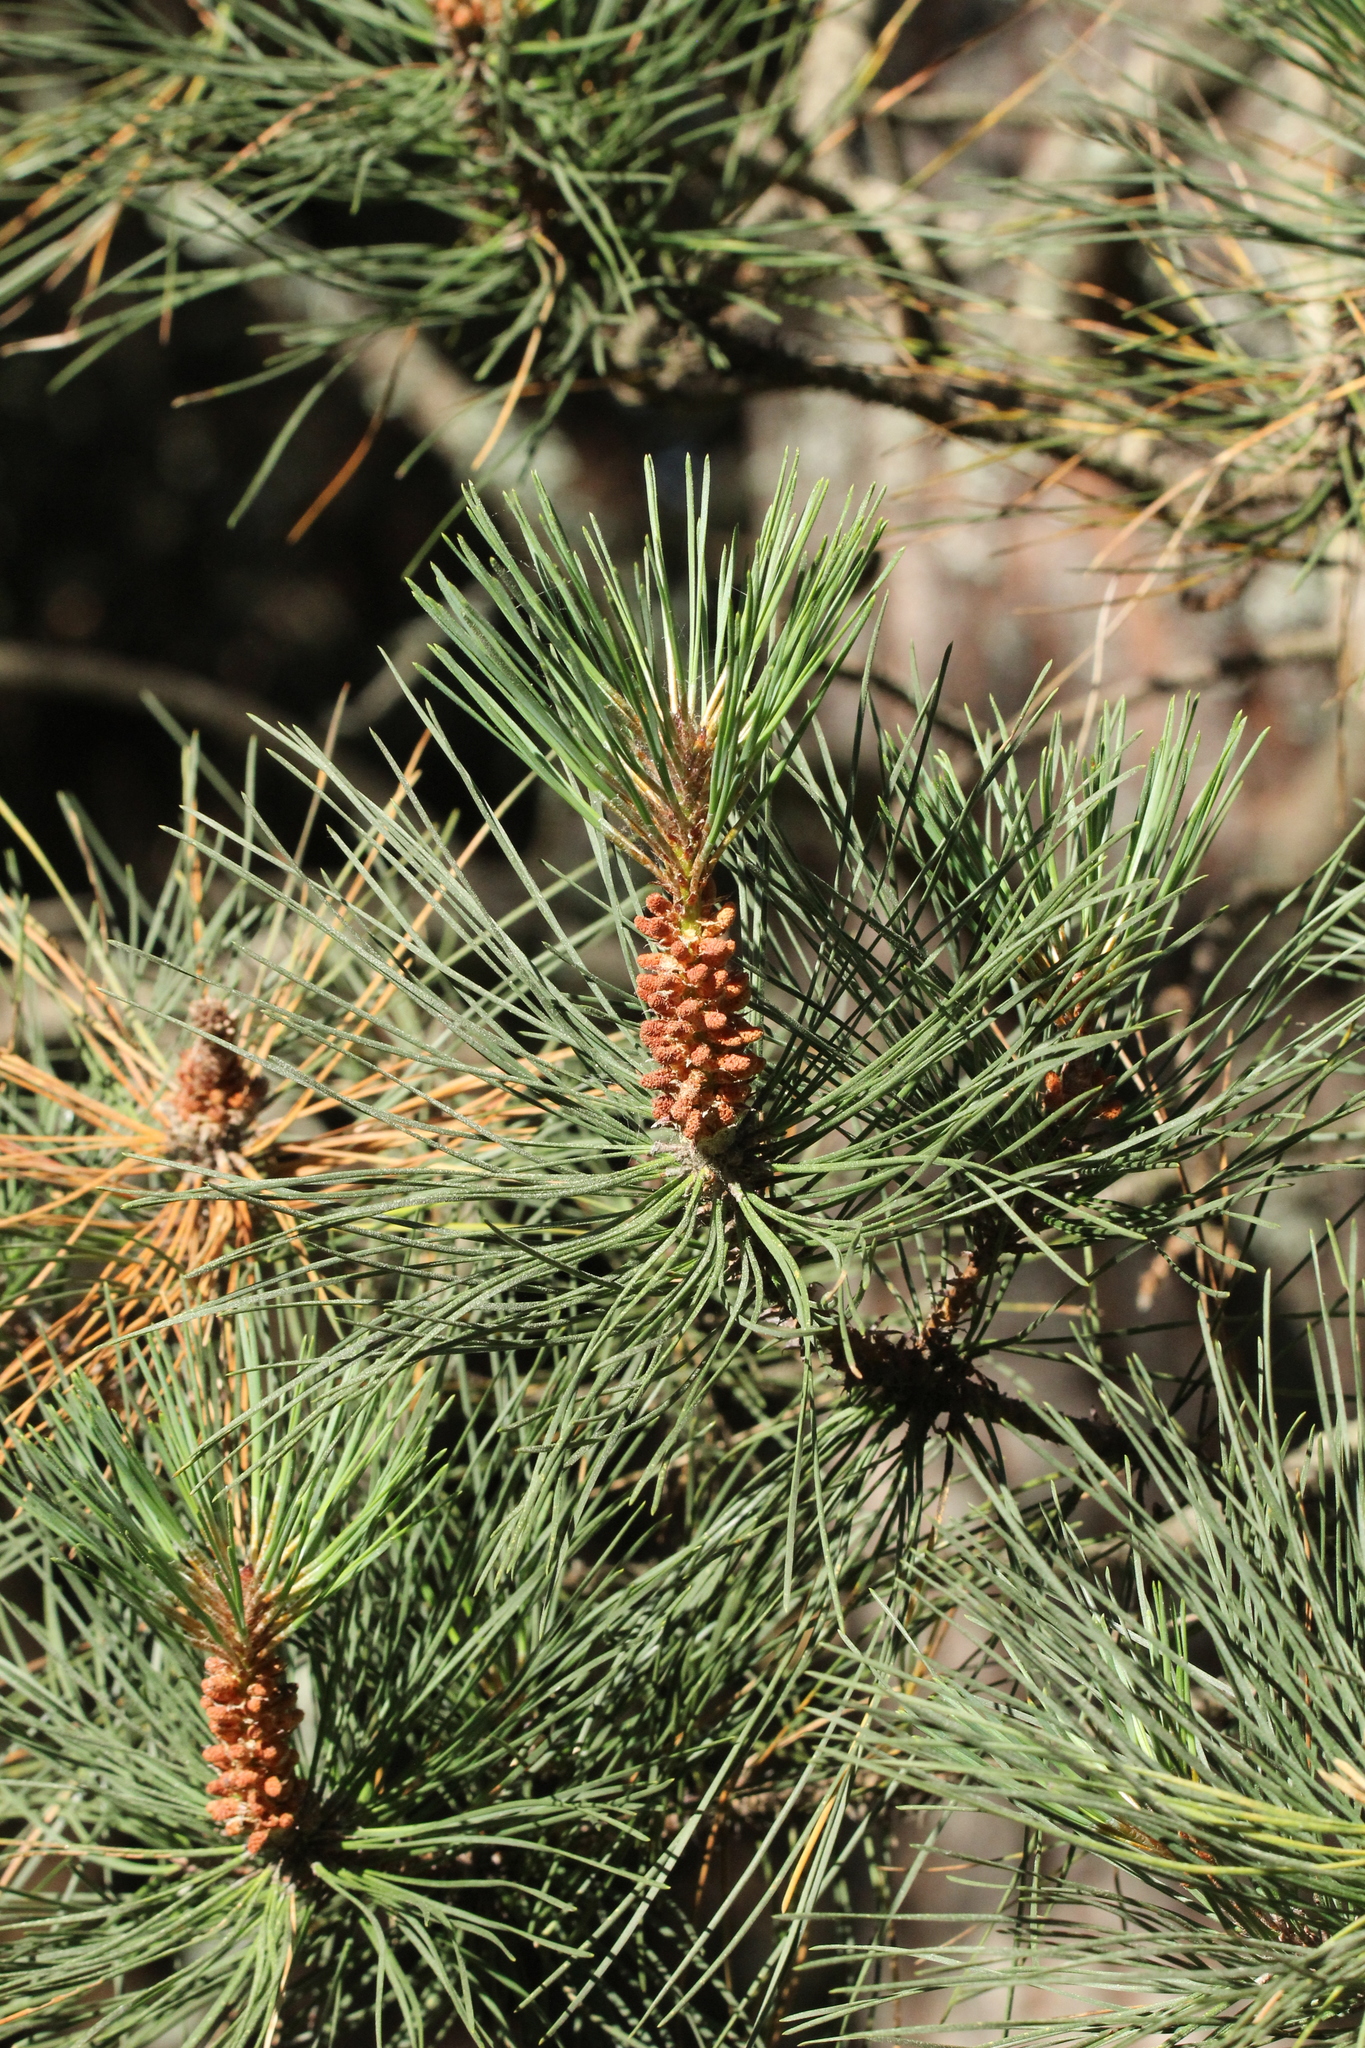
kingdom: Plantae
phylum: Tracheophyta
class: Pinopsida
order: Pinales
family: Pinaceae
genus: Pinus
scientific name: Pinus muricata
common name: Bishop pine
